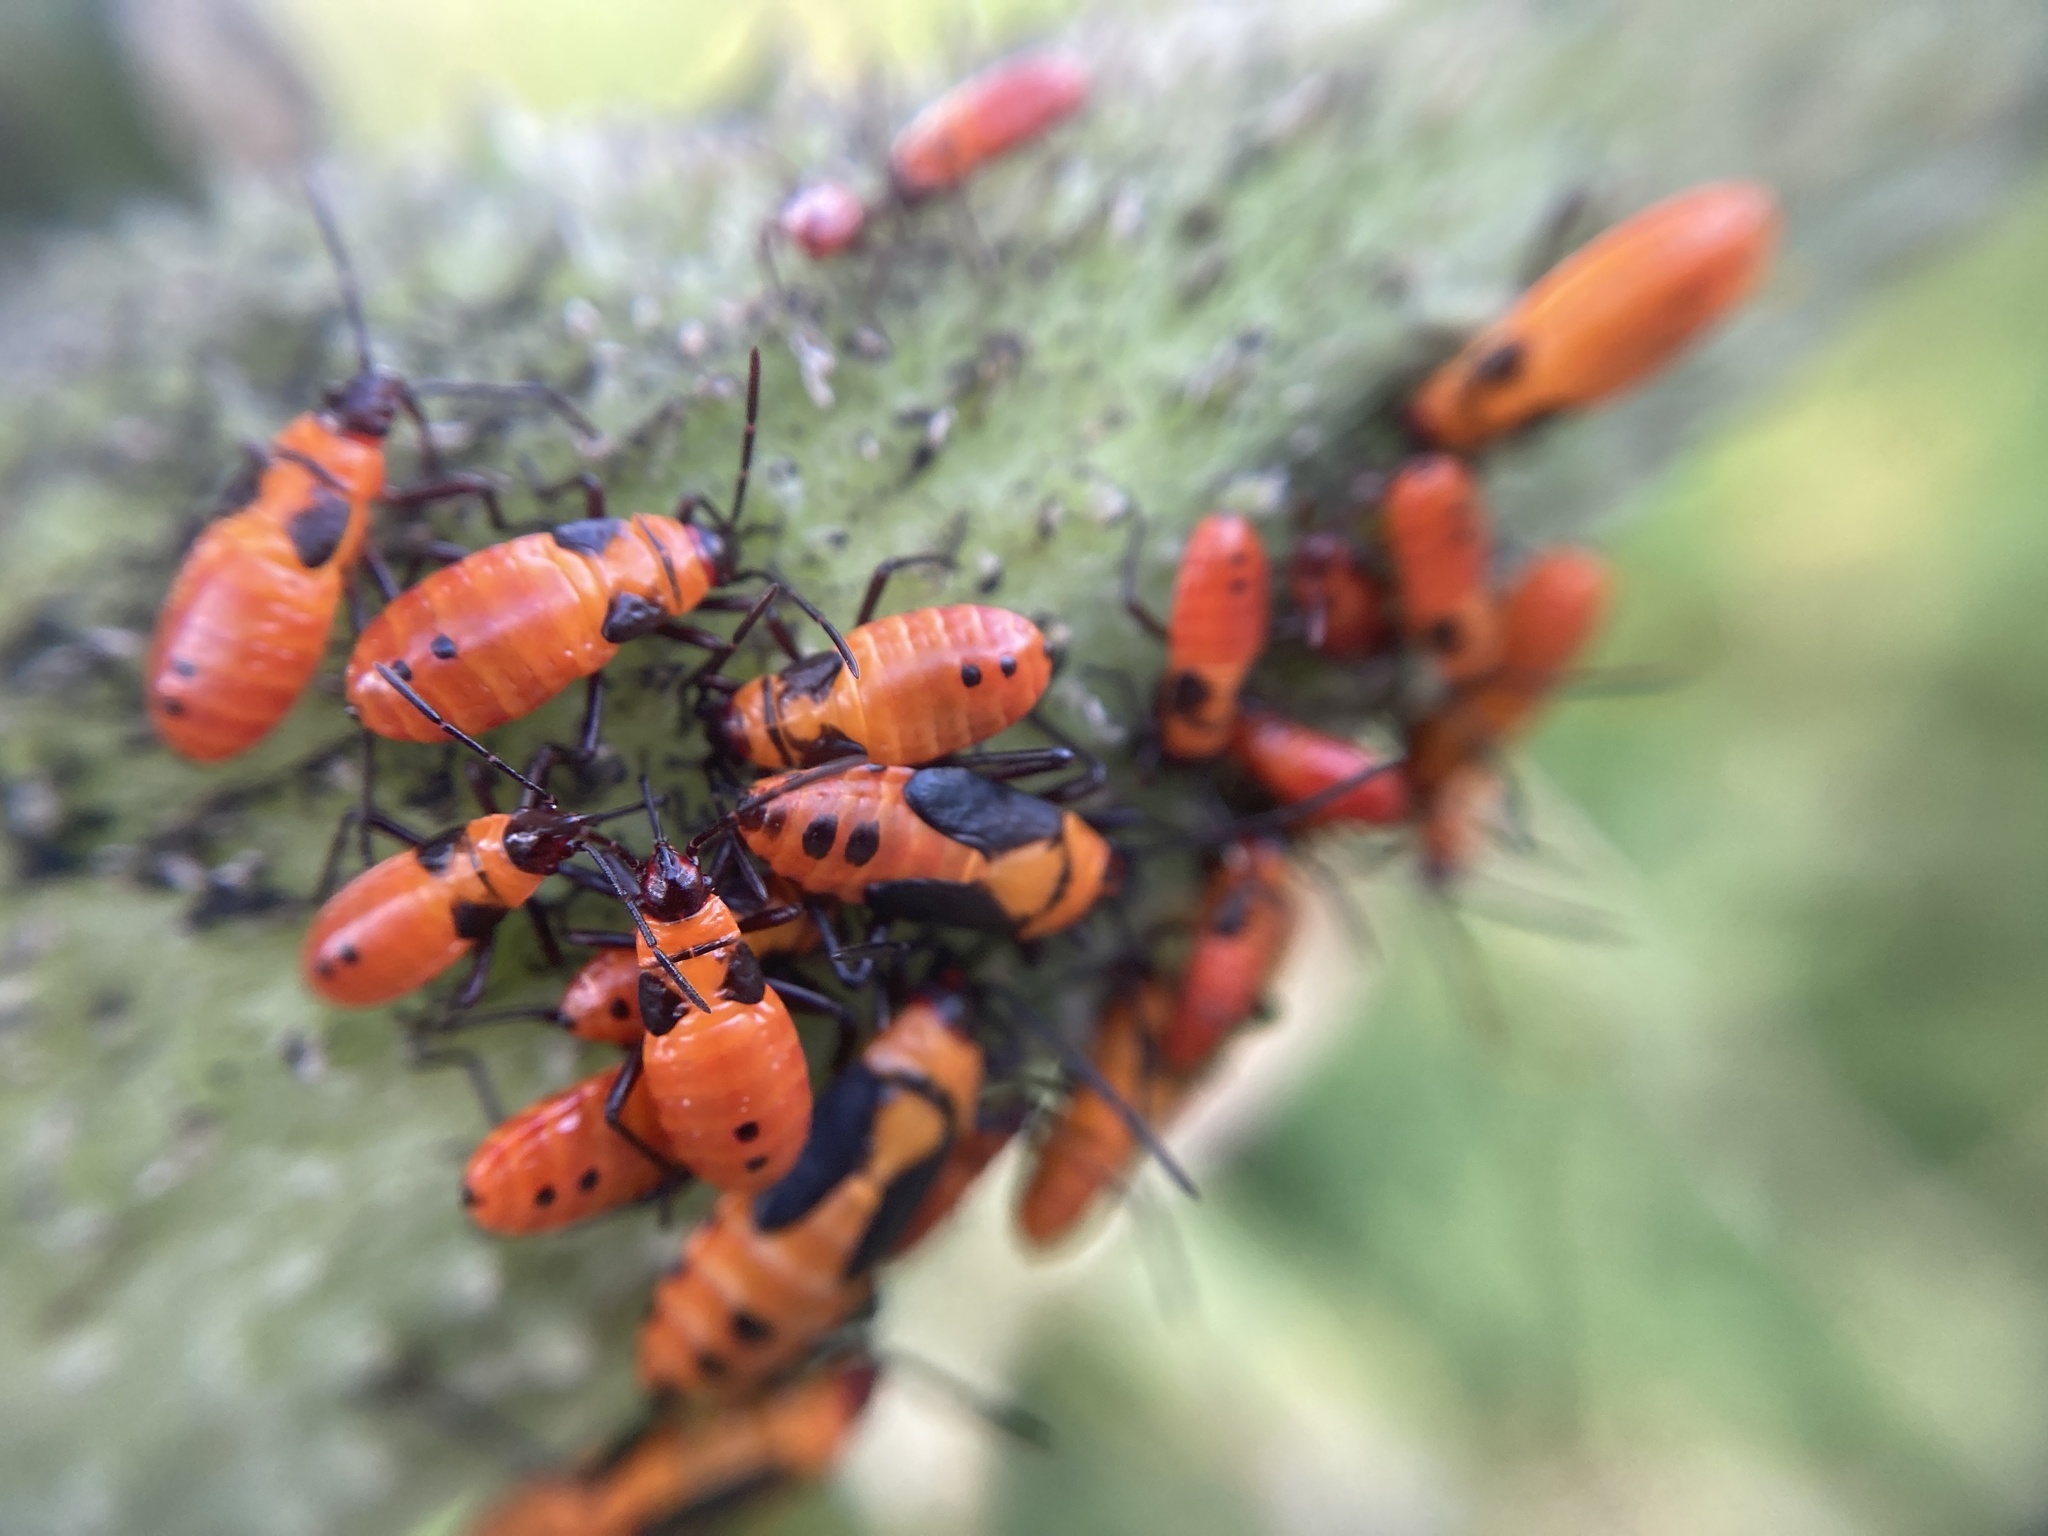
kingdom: Animalia
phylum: Arthropoda
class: Insecta
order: Hemiptera
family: Lygaeidae
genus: Oncopeltus
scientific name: Oncopeltus fasciatus
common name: Large milkweed bug
